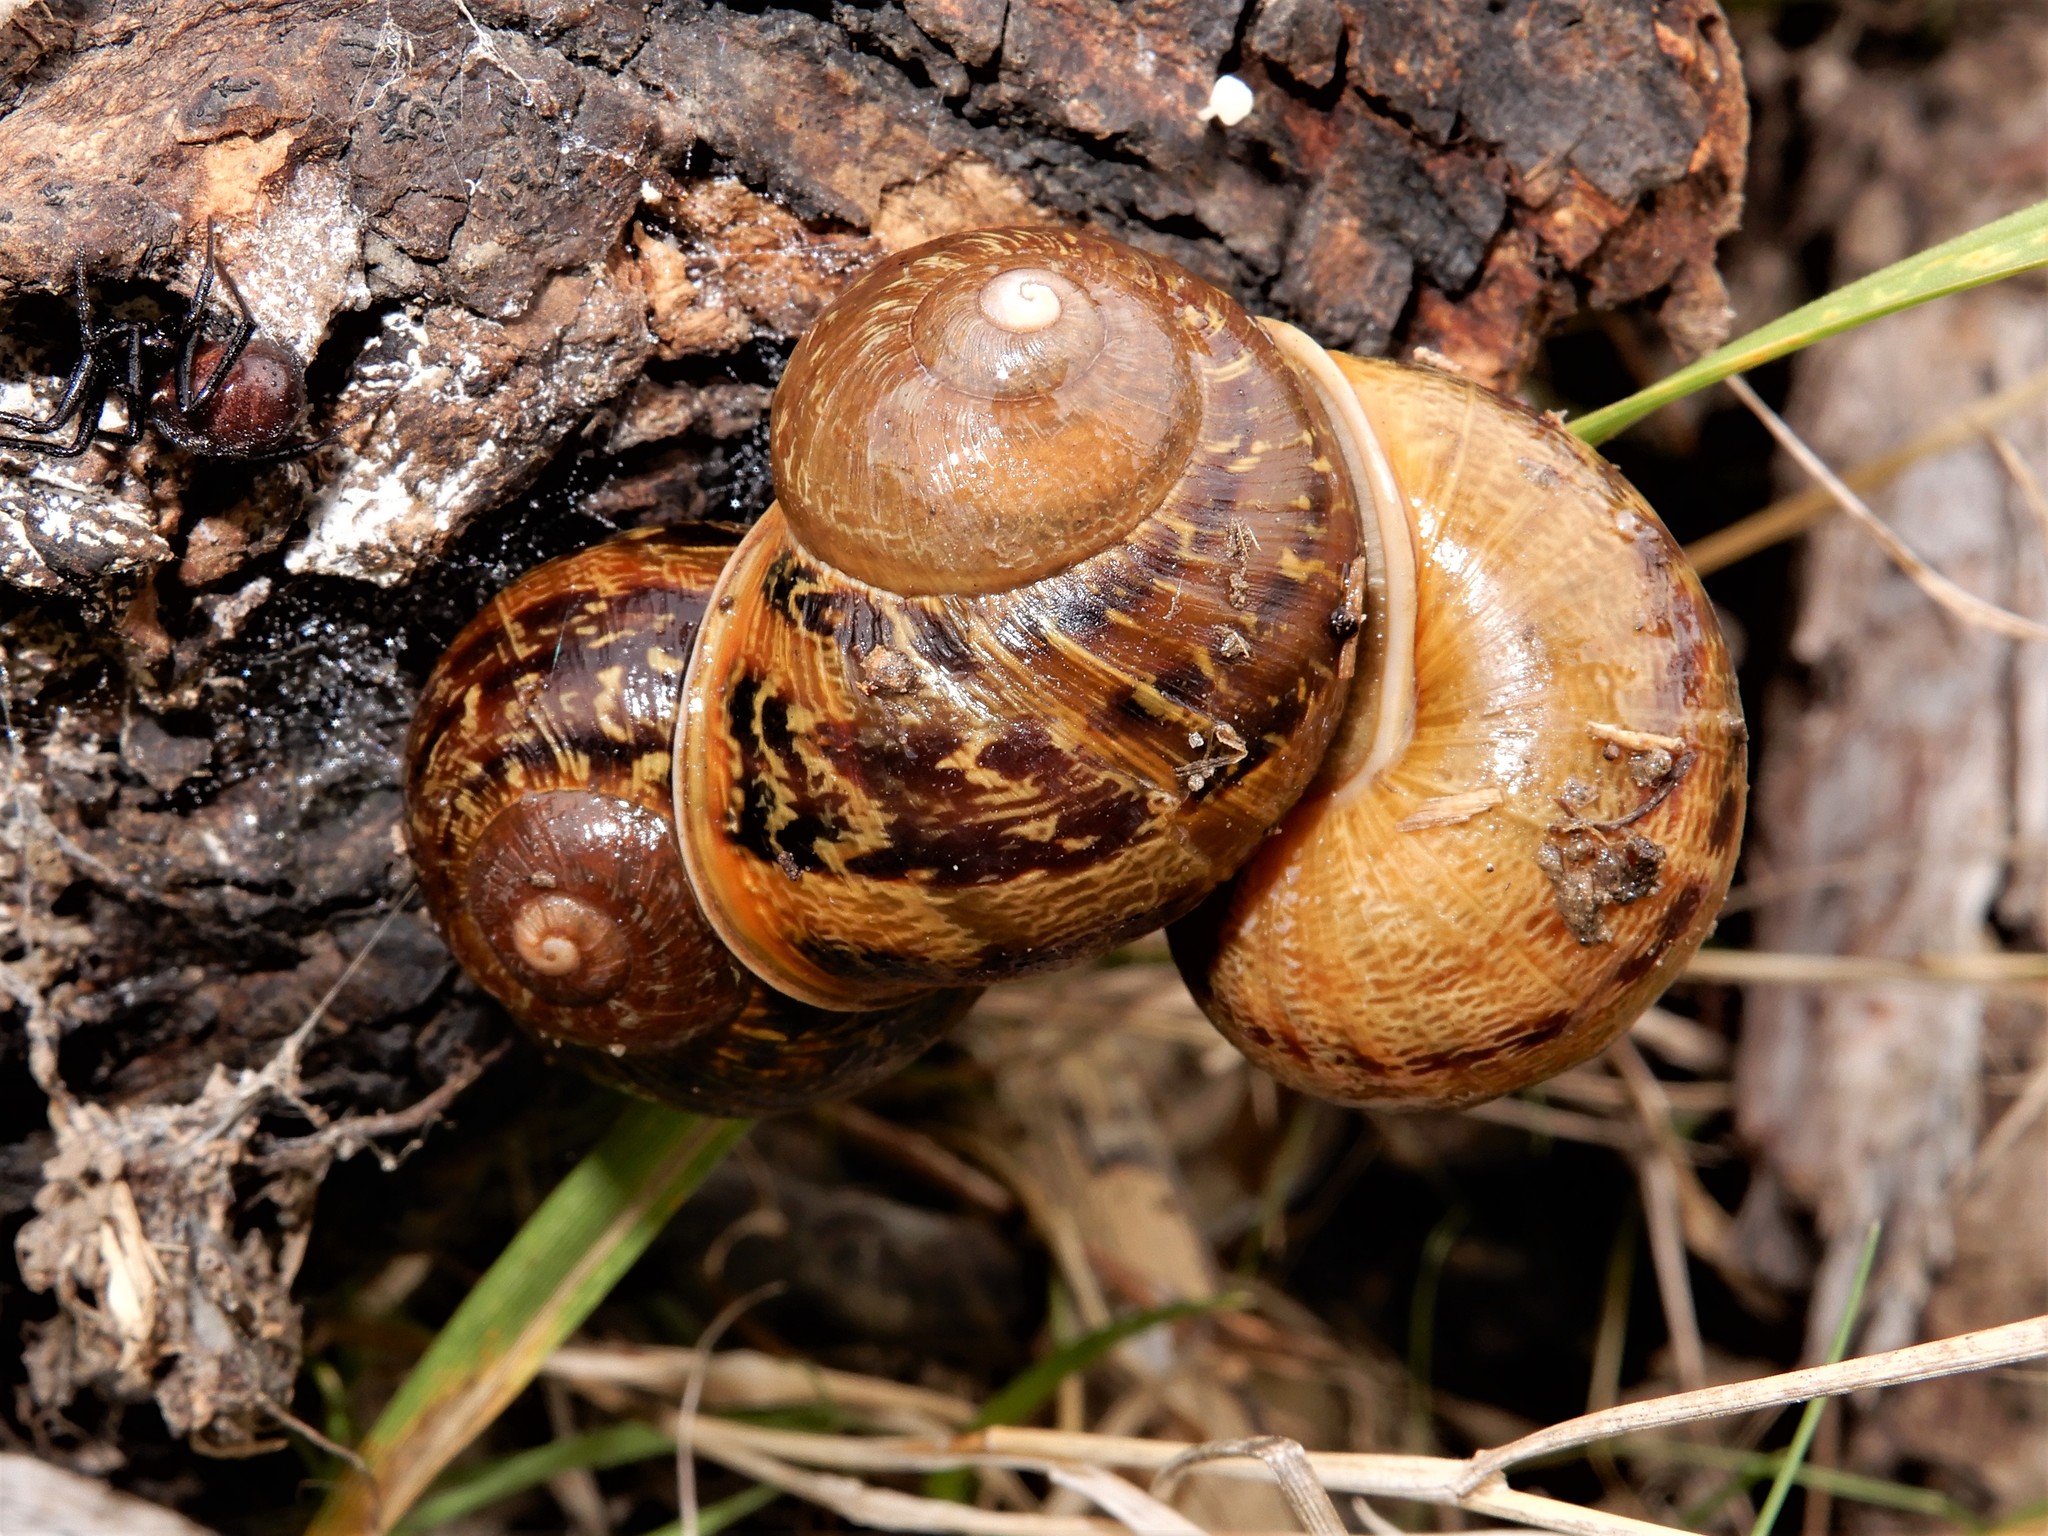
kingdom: Animalia
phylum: Mollusca
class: Gastropoda
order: Stylommatophora
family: Helicidae
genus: Cornu
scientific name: Cornu aspersum
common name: Brown garden snail
